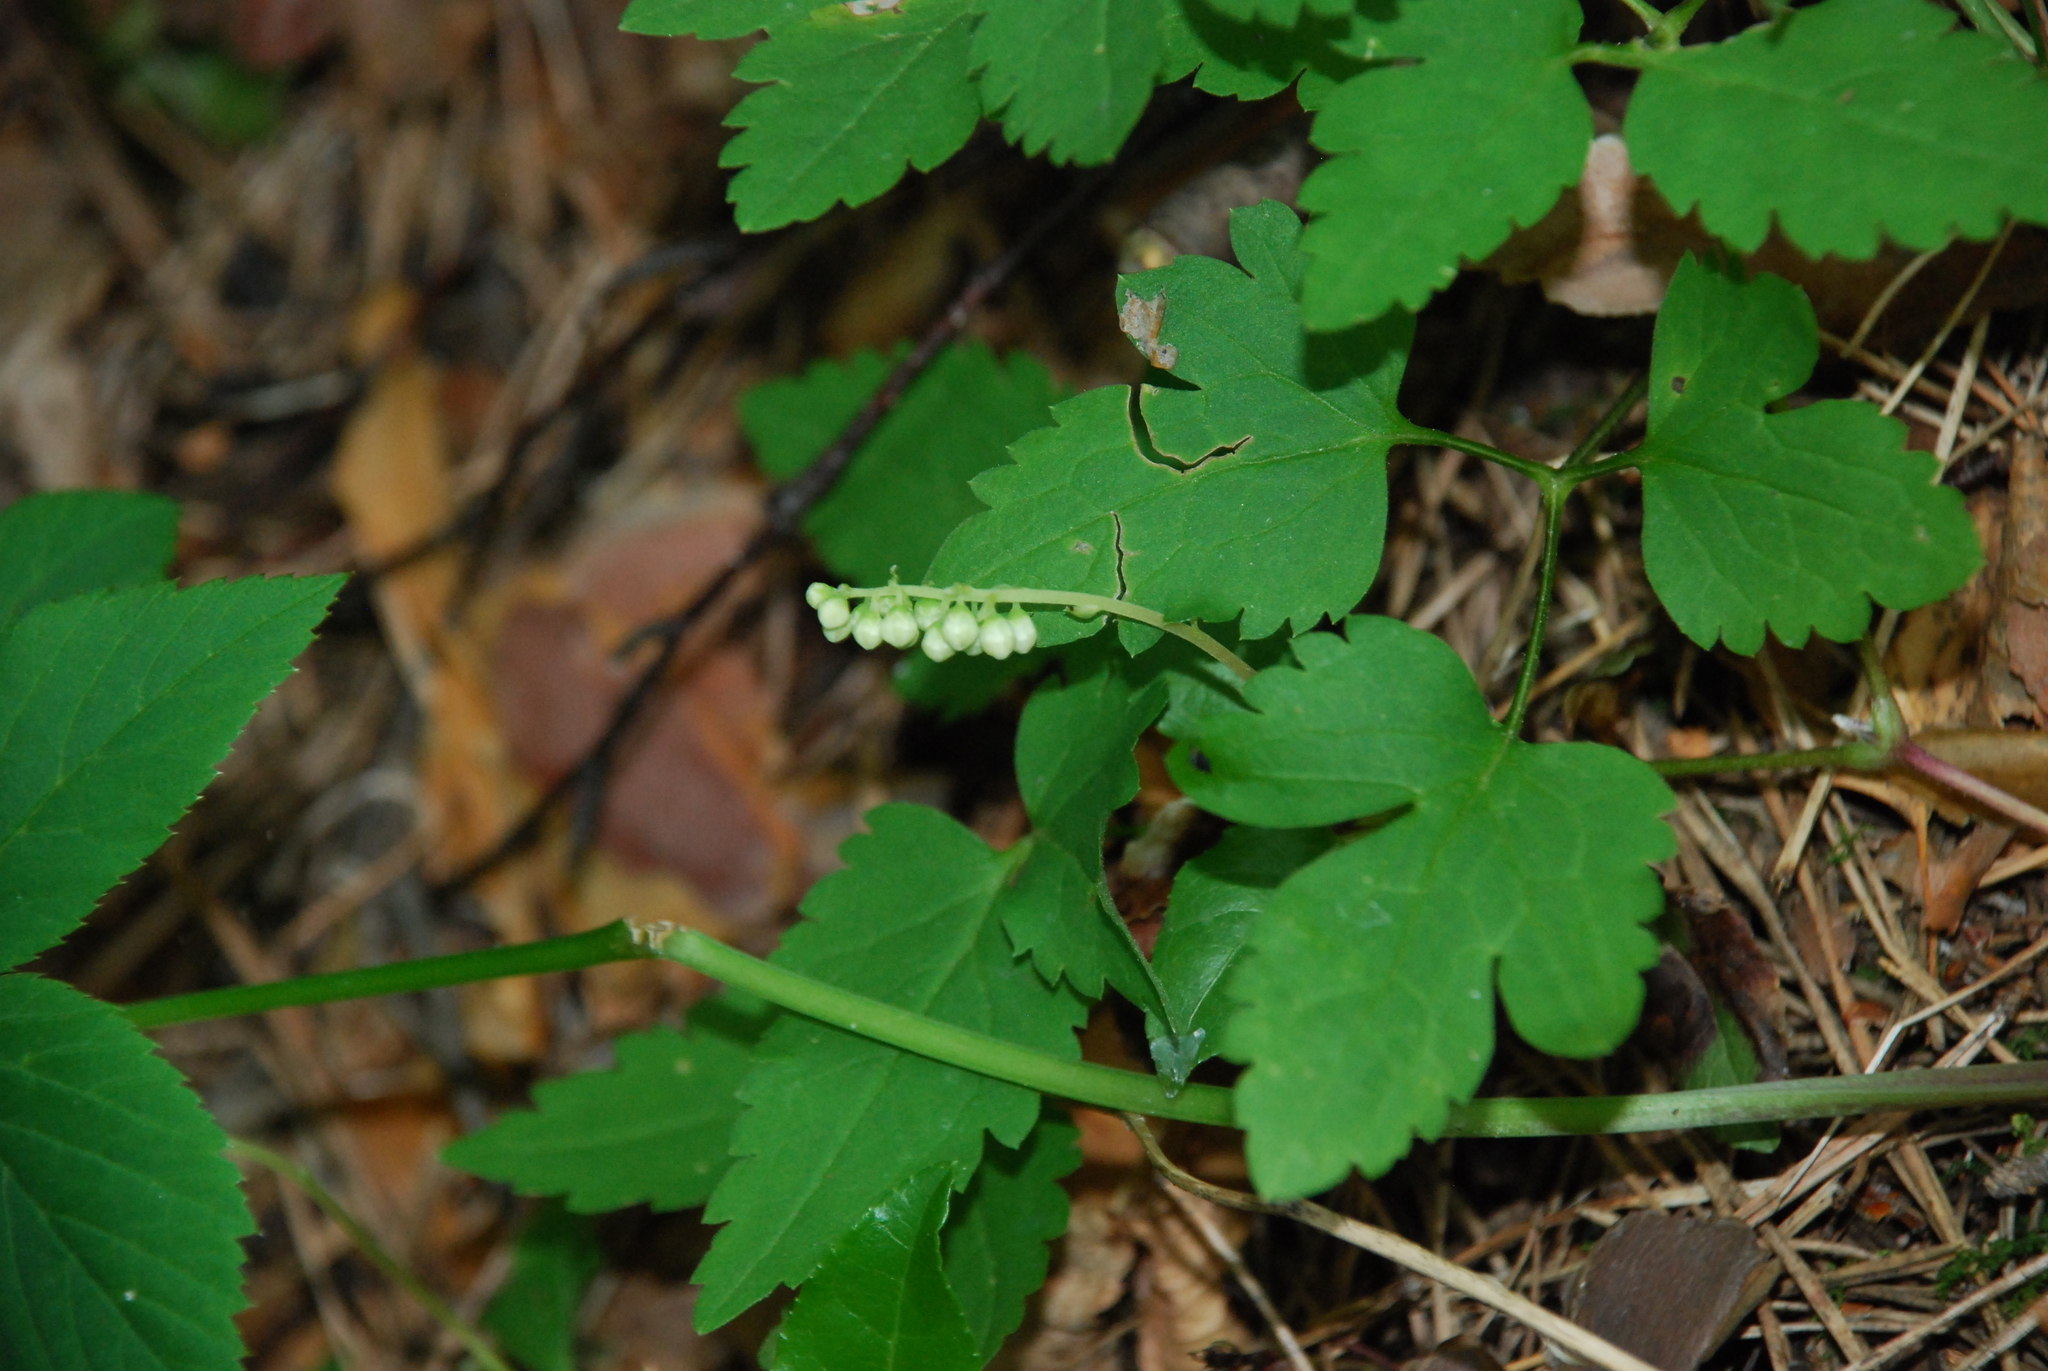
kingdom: Plantae
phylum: Tracheophyta
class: Magnoliopsida
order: Ericales
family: Ericaceae
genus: Orthilia
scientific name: Orthilia secunda
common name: One-sided orthilia
